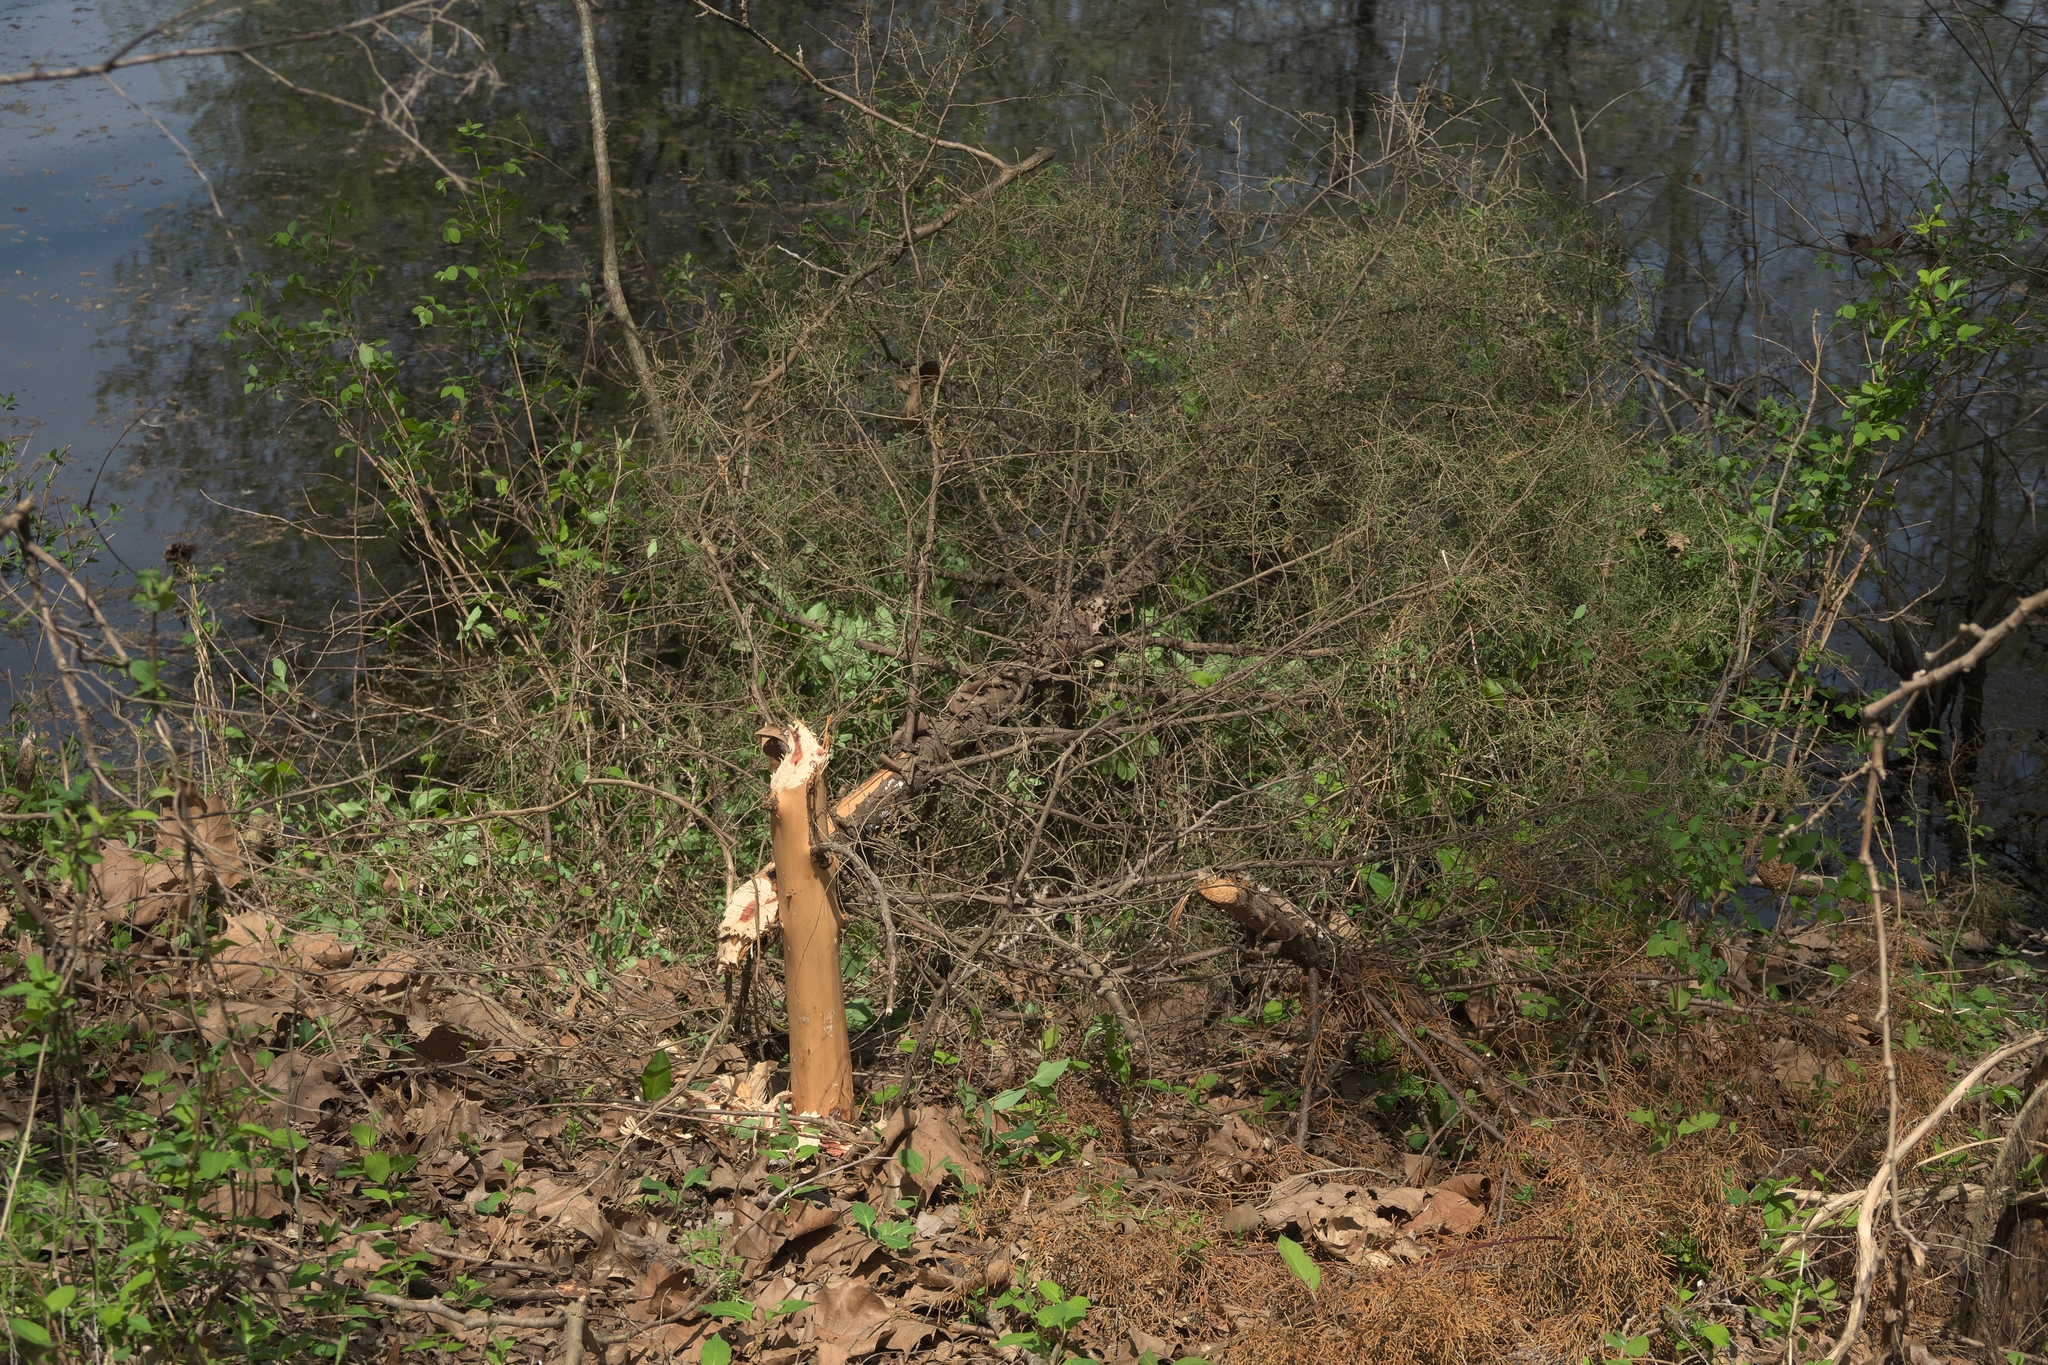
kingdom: Animalia
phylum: Chordata
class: Mammalia
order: Rodentia
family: Castoridae
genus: Castor
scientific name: Castor canadensis
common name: American beaver
